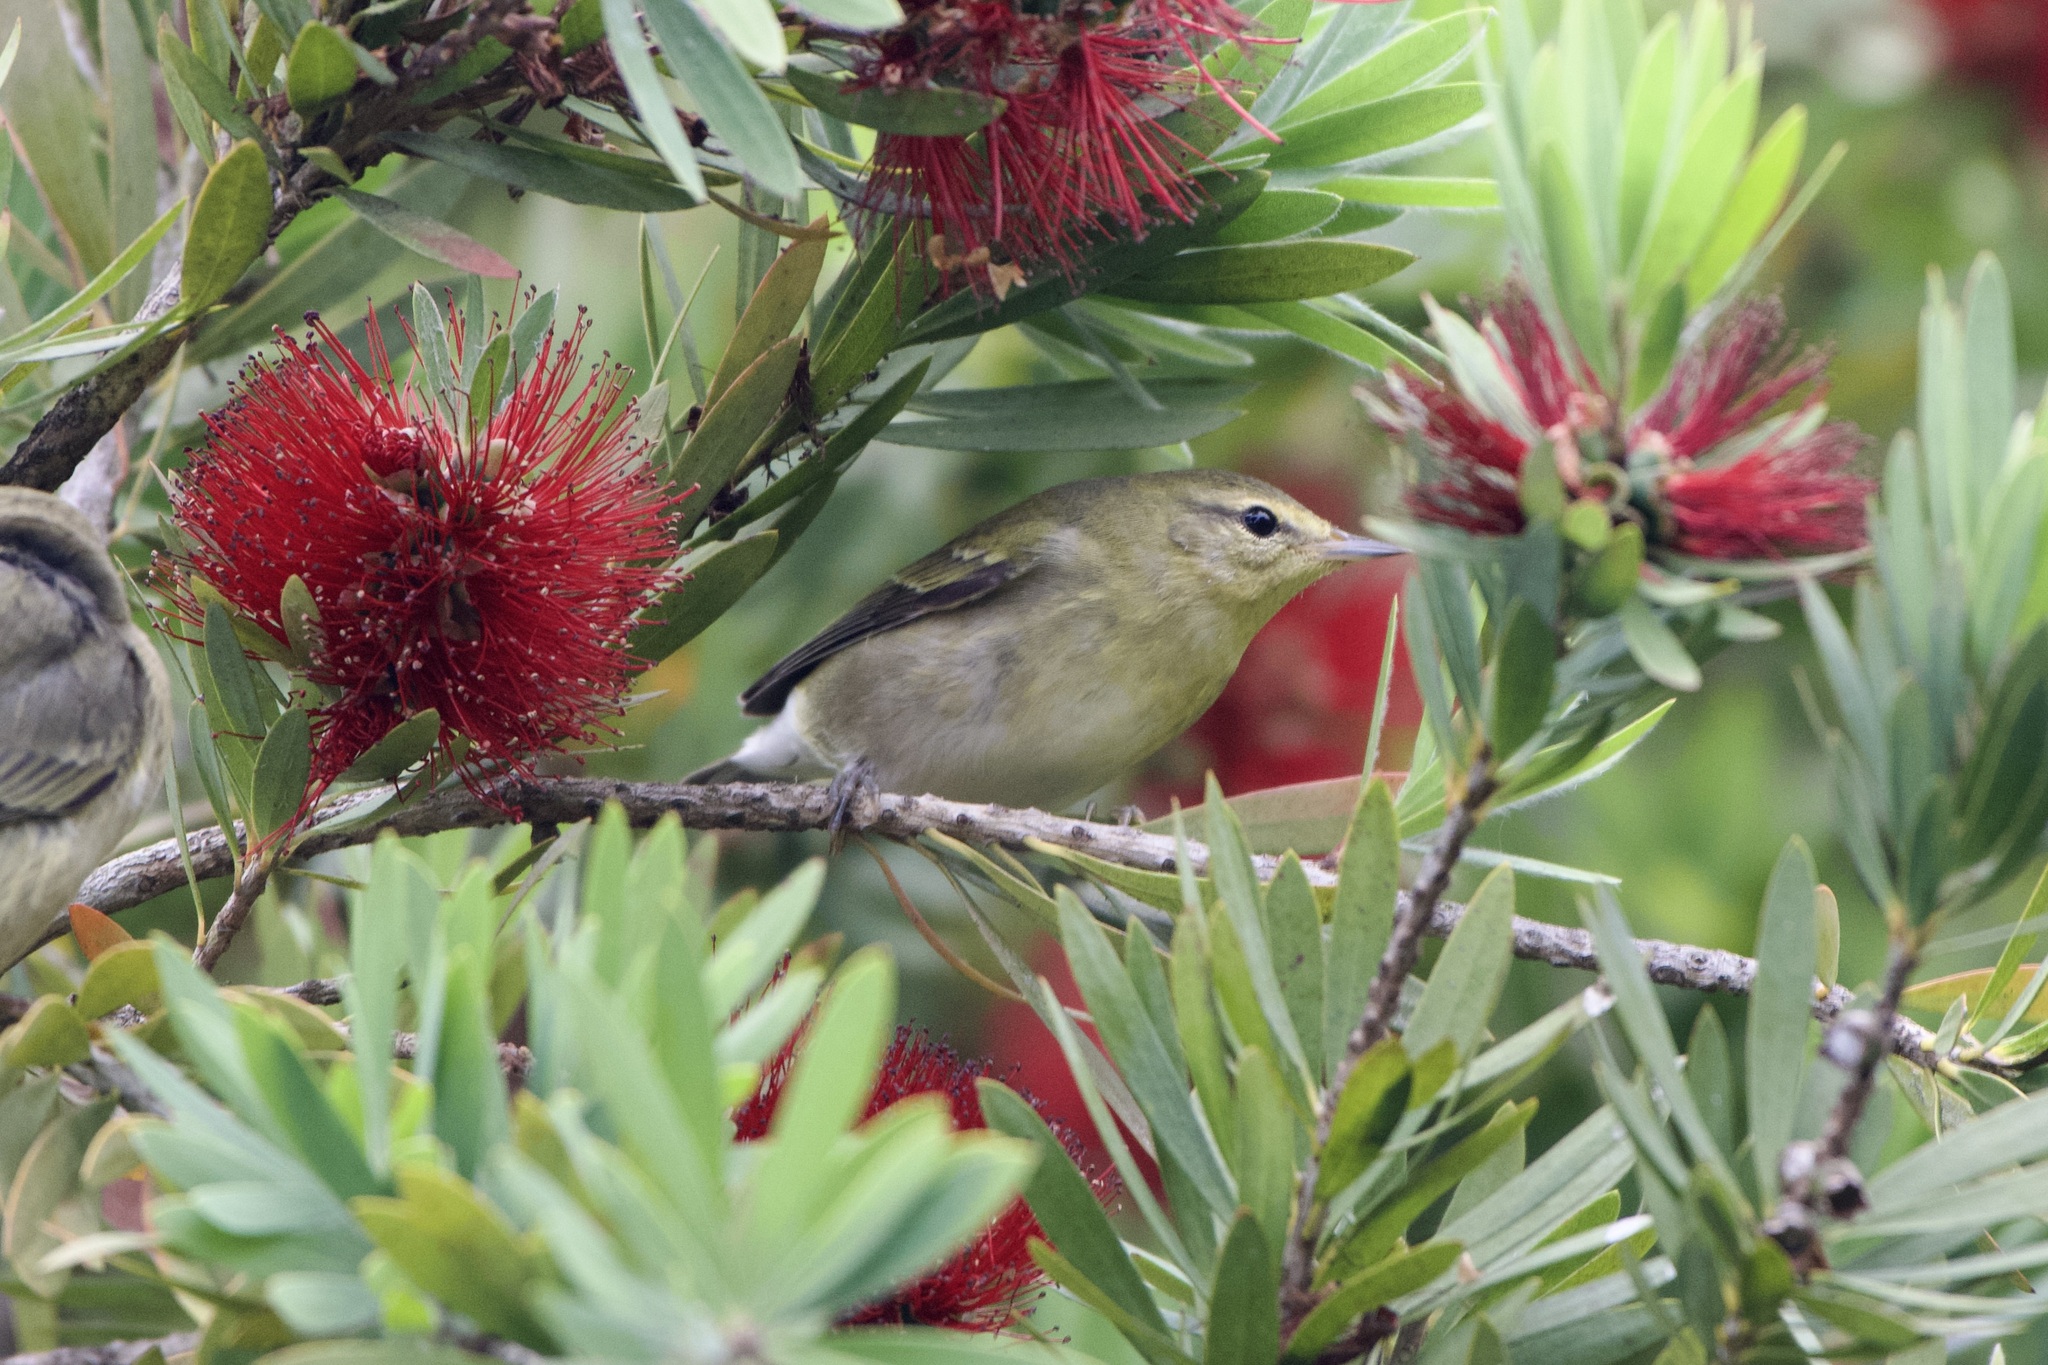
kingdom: Animalia
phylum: Chordata
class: Aves
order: Passeriformes
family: Parulidae
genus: Leiothlypis
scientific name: Leiothlypis peregrina
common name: Tennessee warbler
